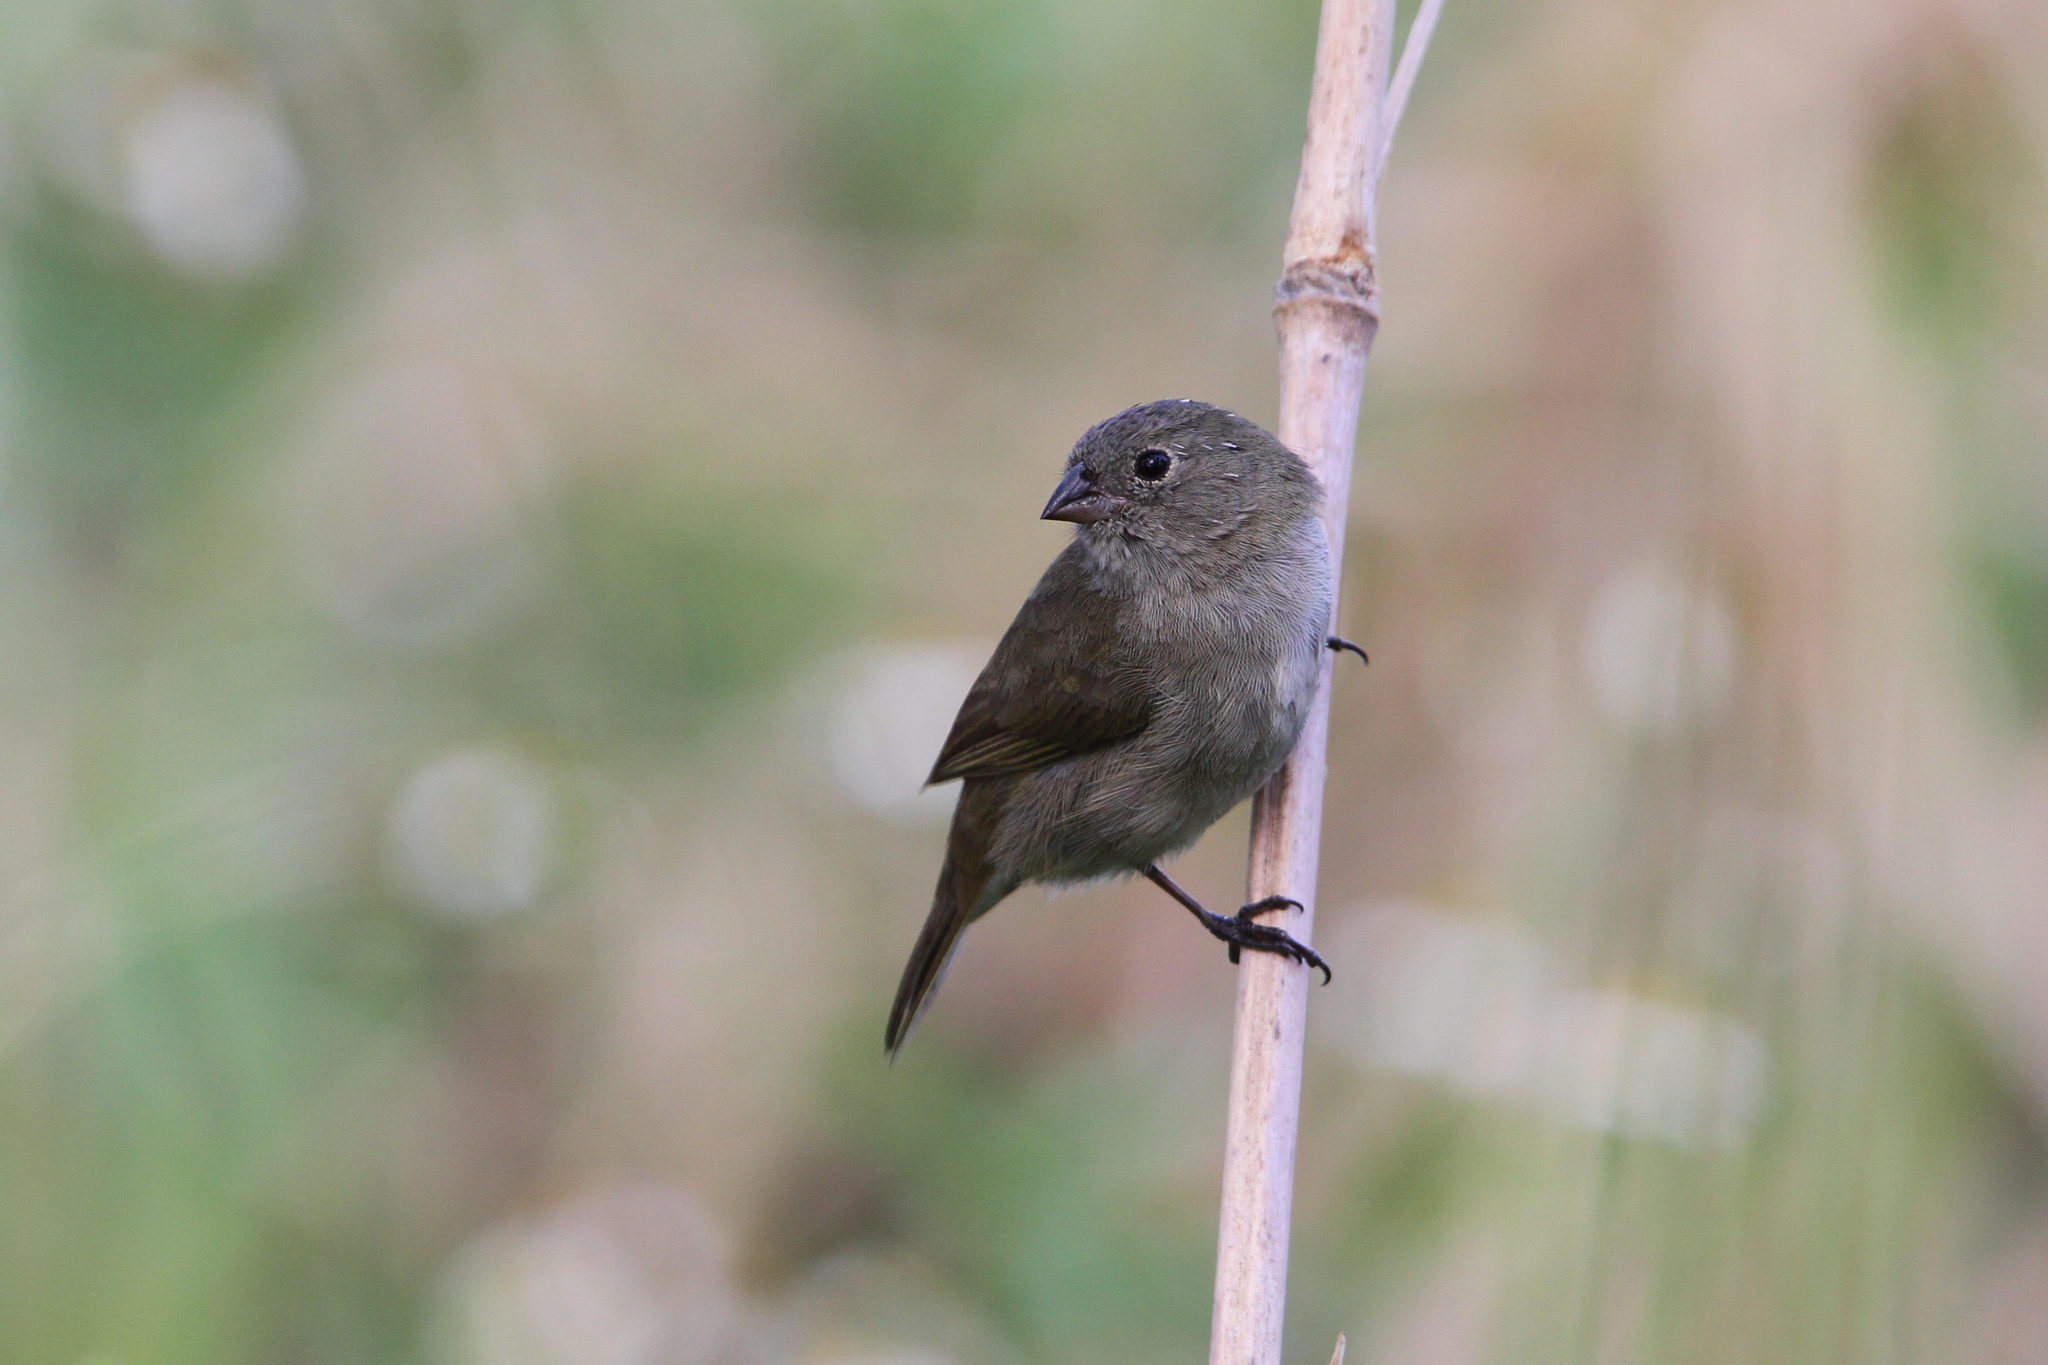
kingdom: Animalia
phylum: Chordata
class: Aves
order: Passeriformes
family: Thraupidae
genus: Melanospiza
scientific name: Melanospiza bicolor
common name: Black-faced grassquit
